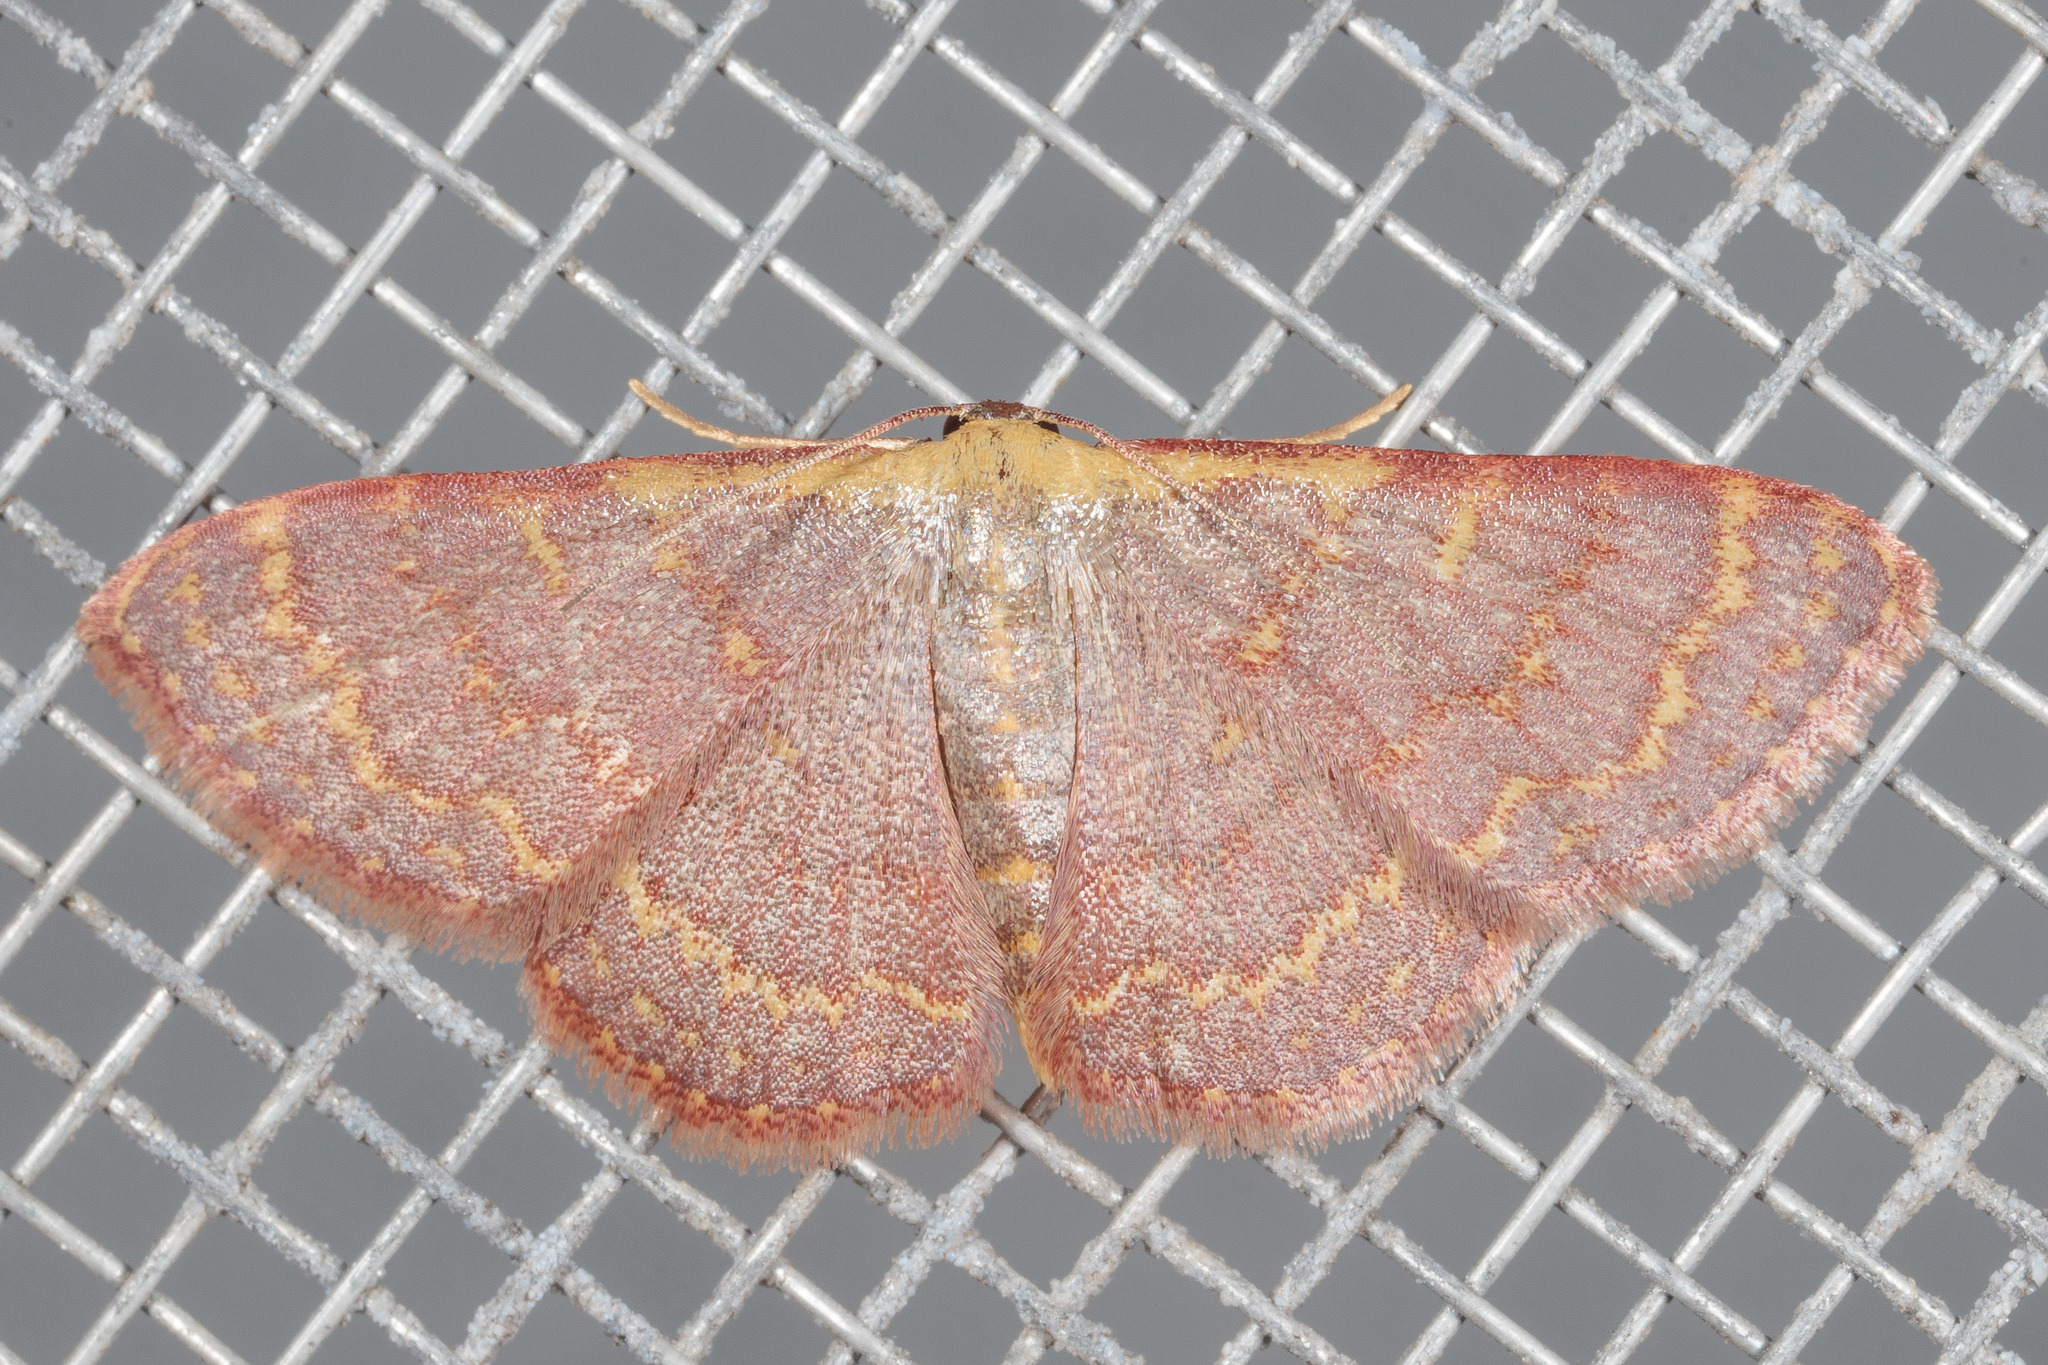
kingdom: Animalia
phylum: Arthropoda
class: Insecta
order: Lepidoptera
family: Geometridae
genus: Leptostales
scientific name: Leptostales pannaria
